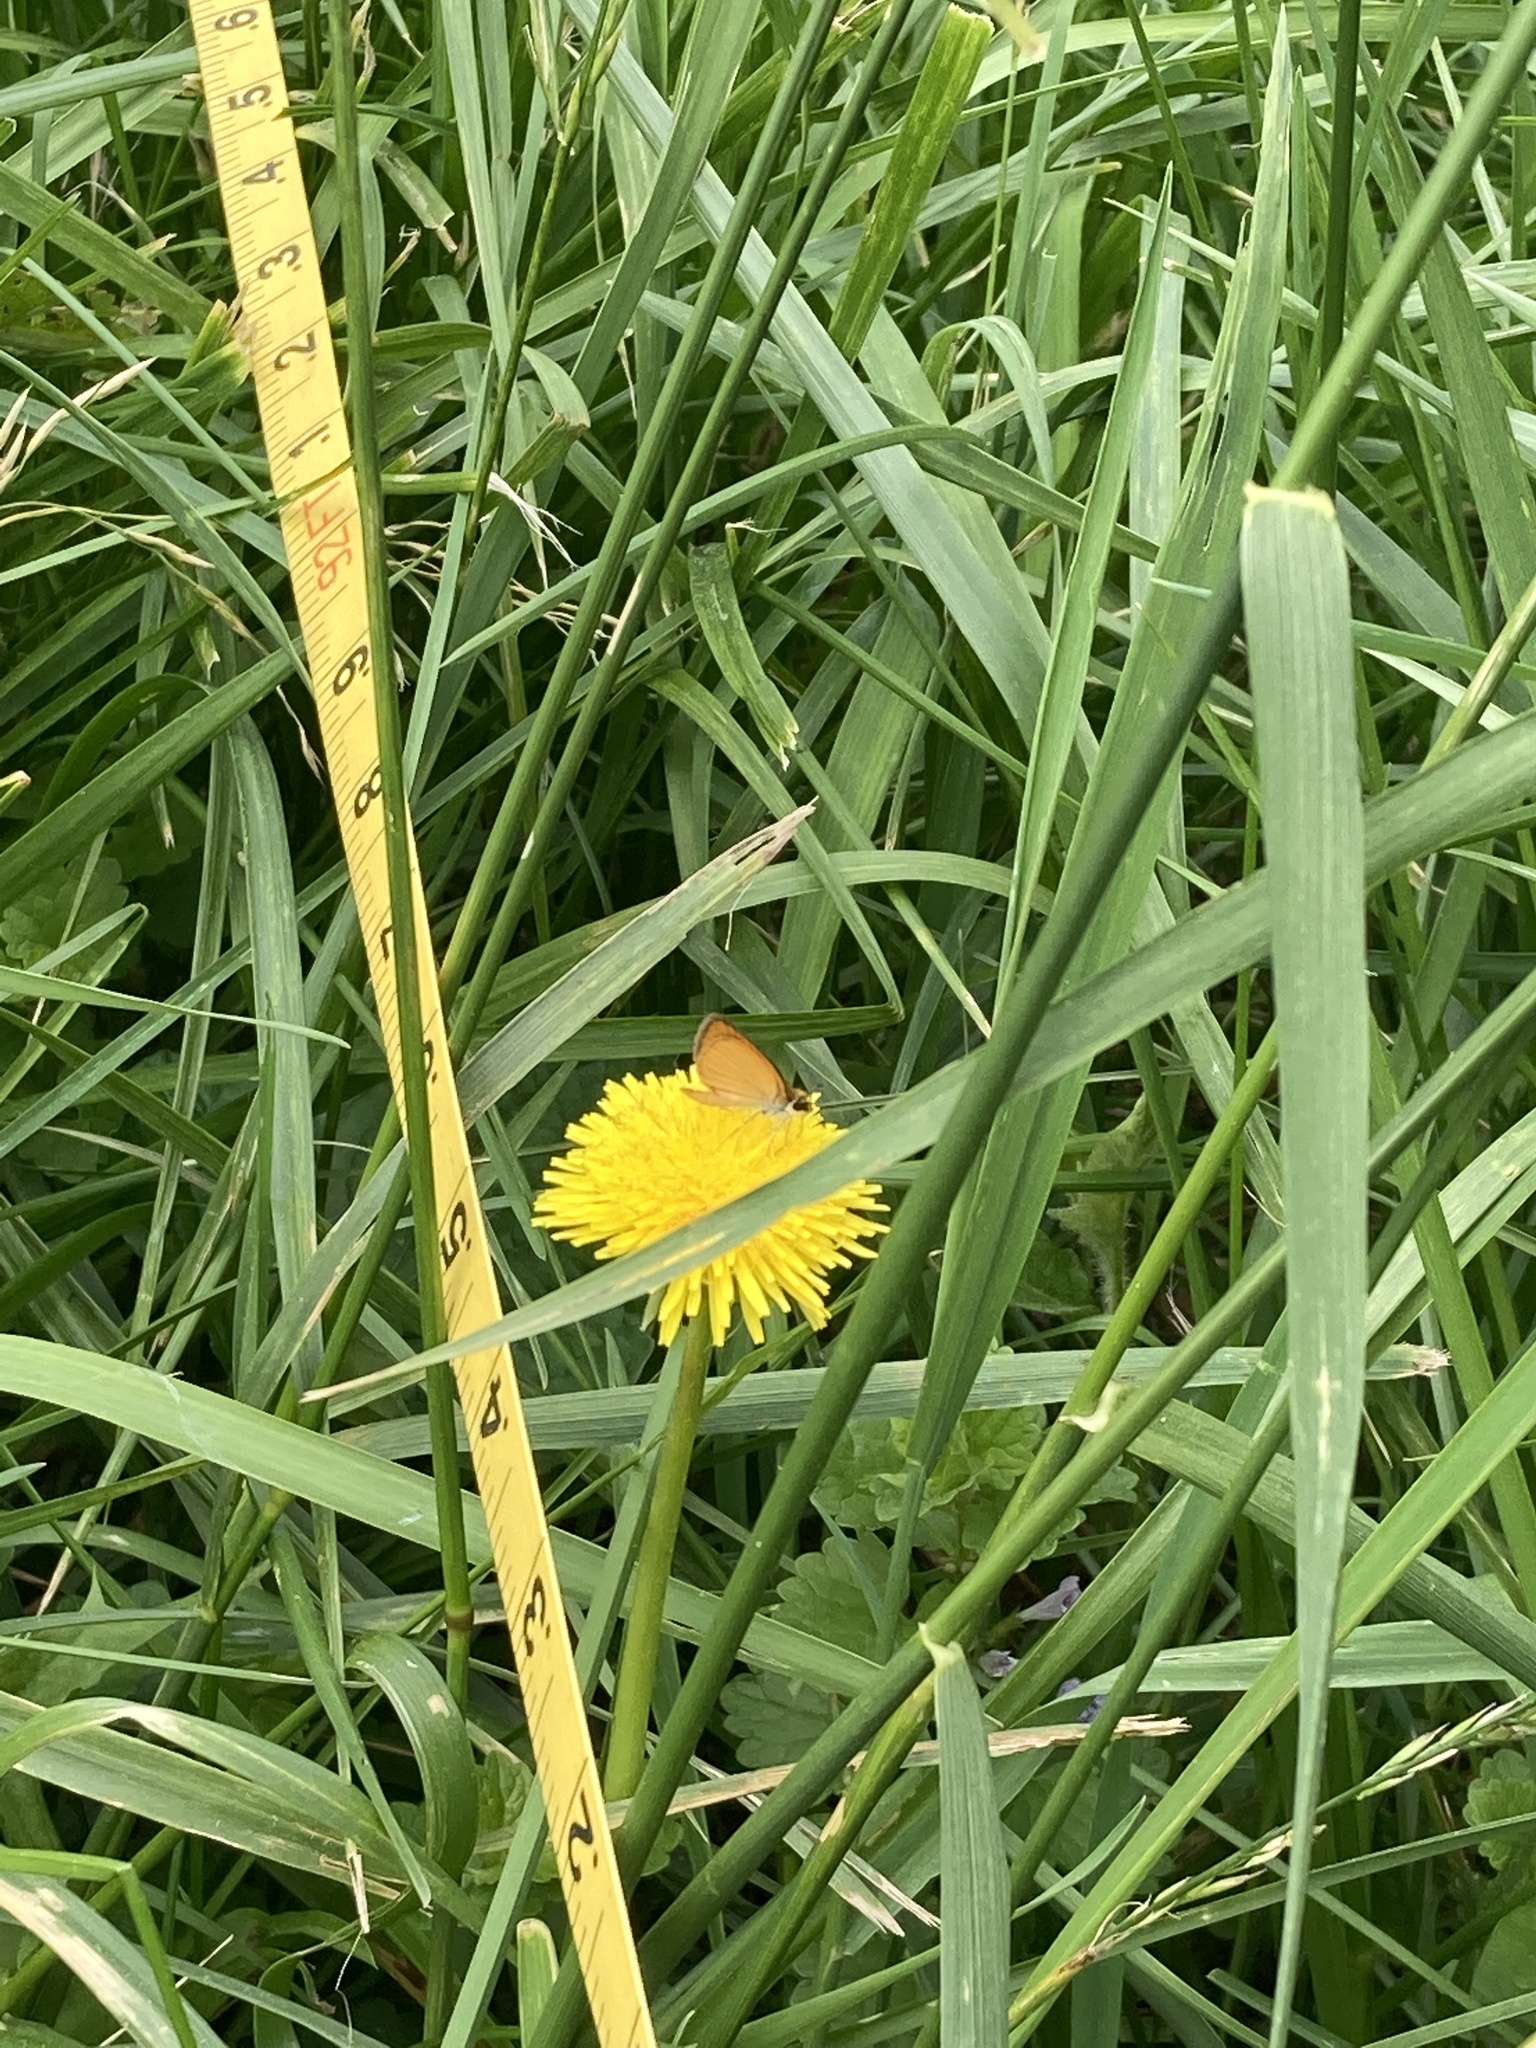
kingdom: Animalia
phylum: Arthropoda
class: Insecta
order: Lepidoptera
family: Hesperiidae
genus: Ancyloxypha
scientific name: Ancyloxypha numitor
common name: Least skipper
